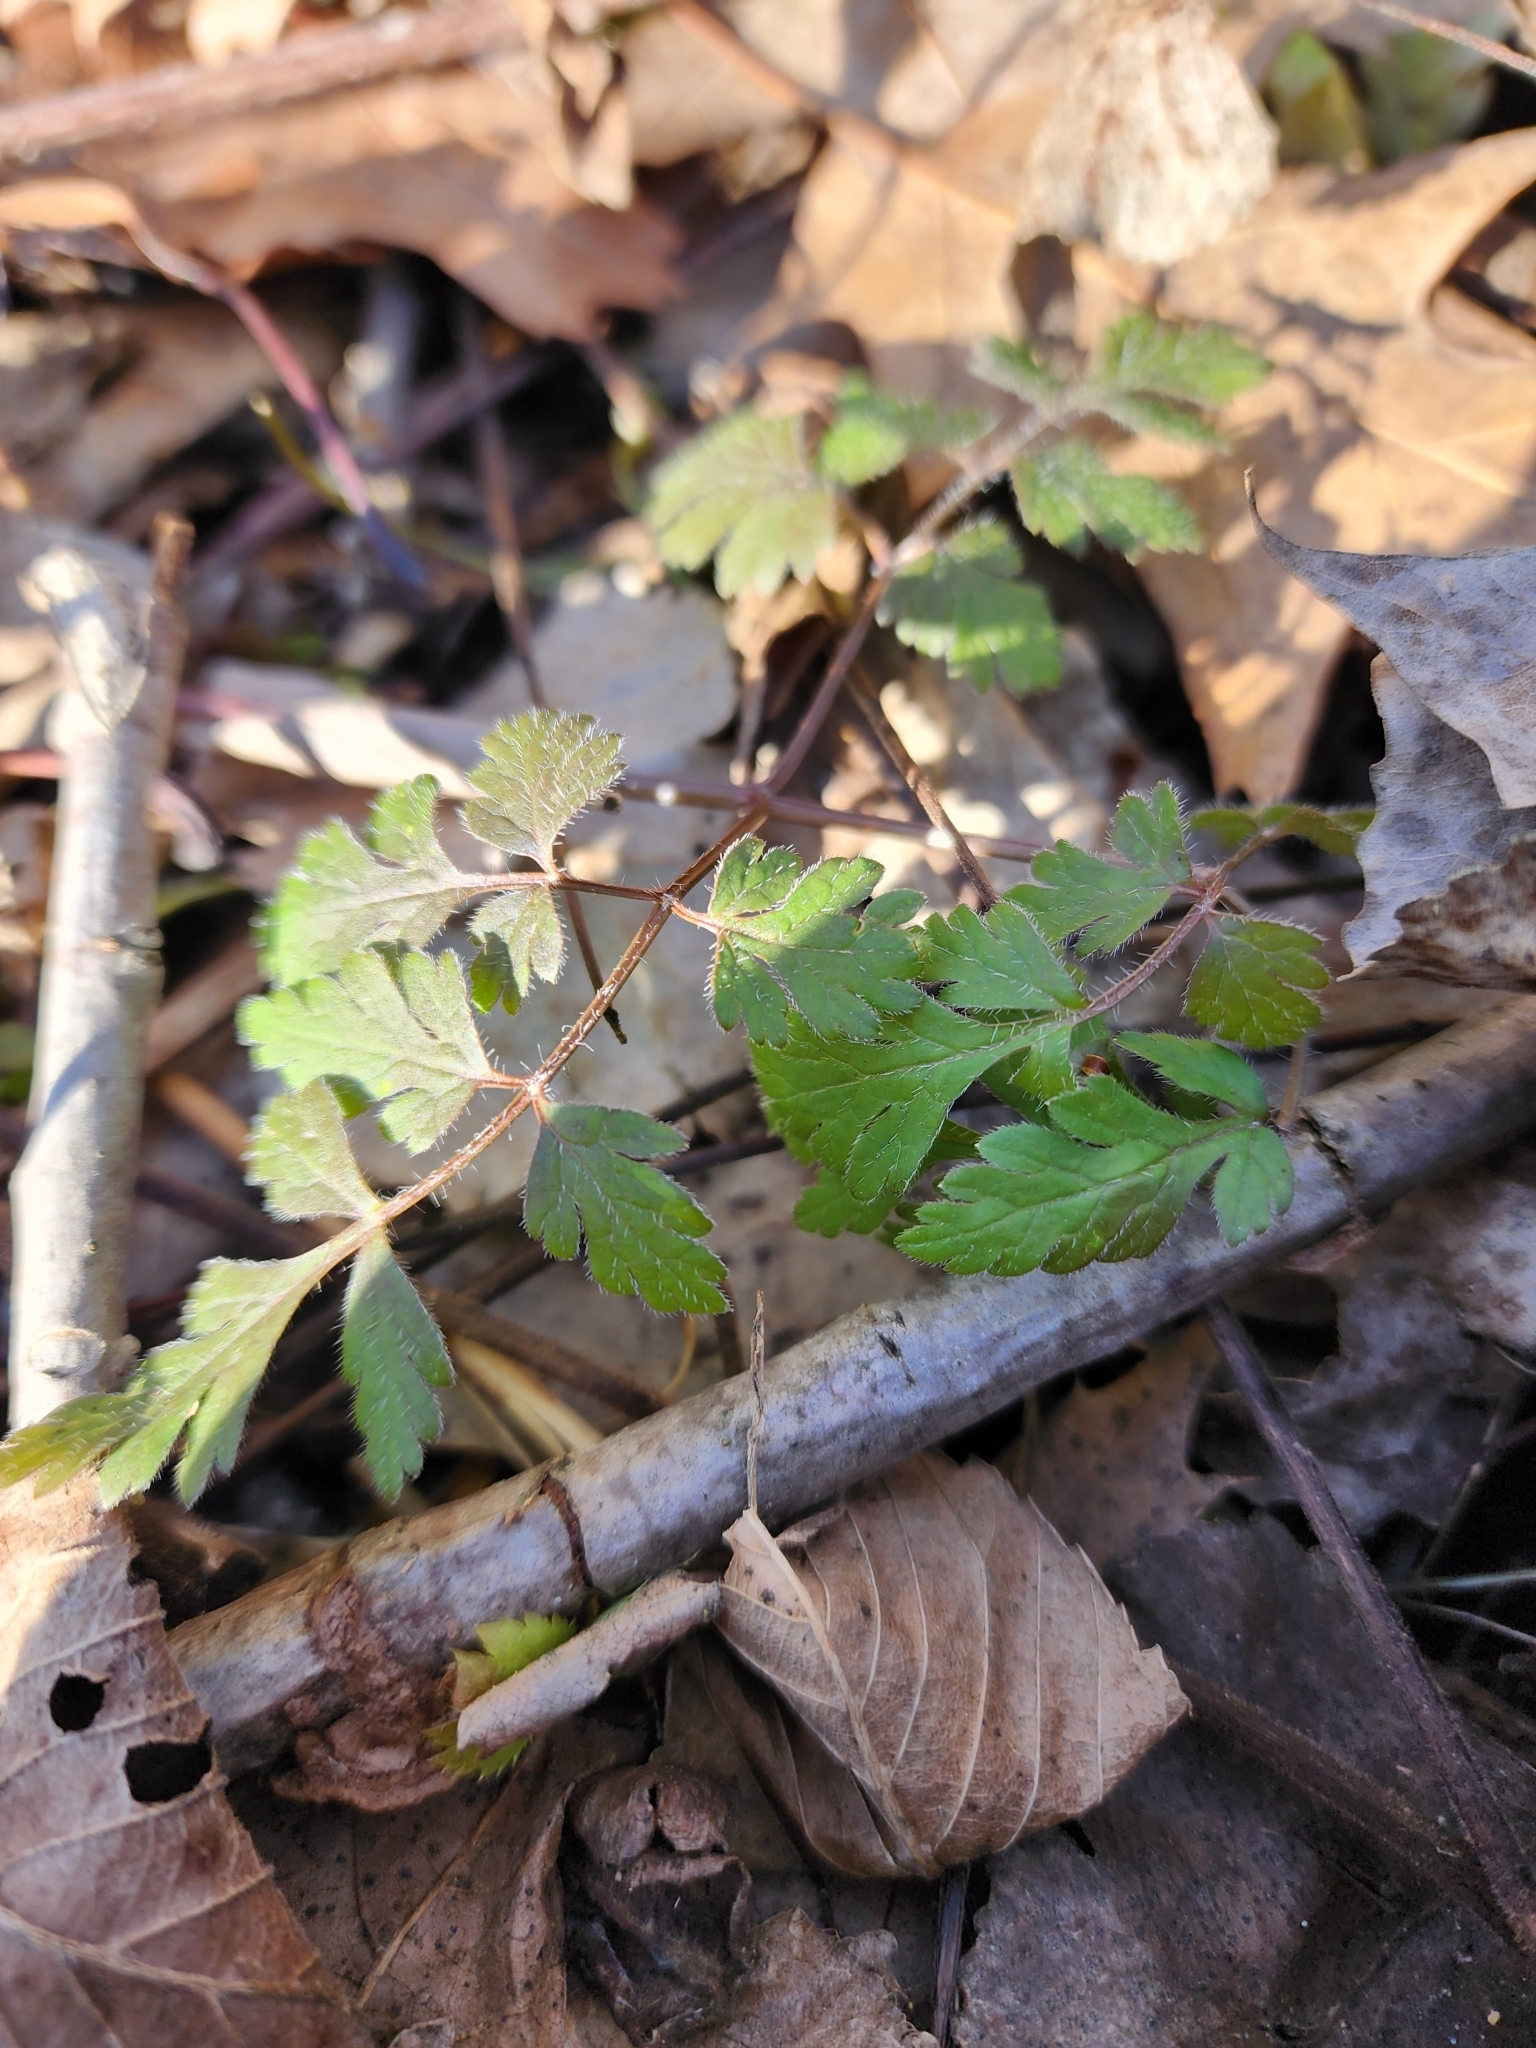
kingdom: Plantae
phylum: Tracheophyta
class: Magnoliopsida
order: Apiales
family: Apiaceae
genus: Osmorhiza
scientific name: Osmorhiza claytonii
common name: Hairy sweet cicely
